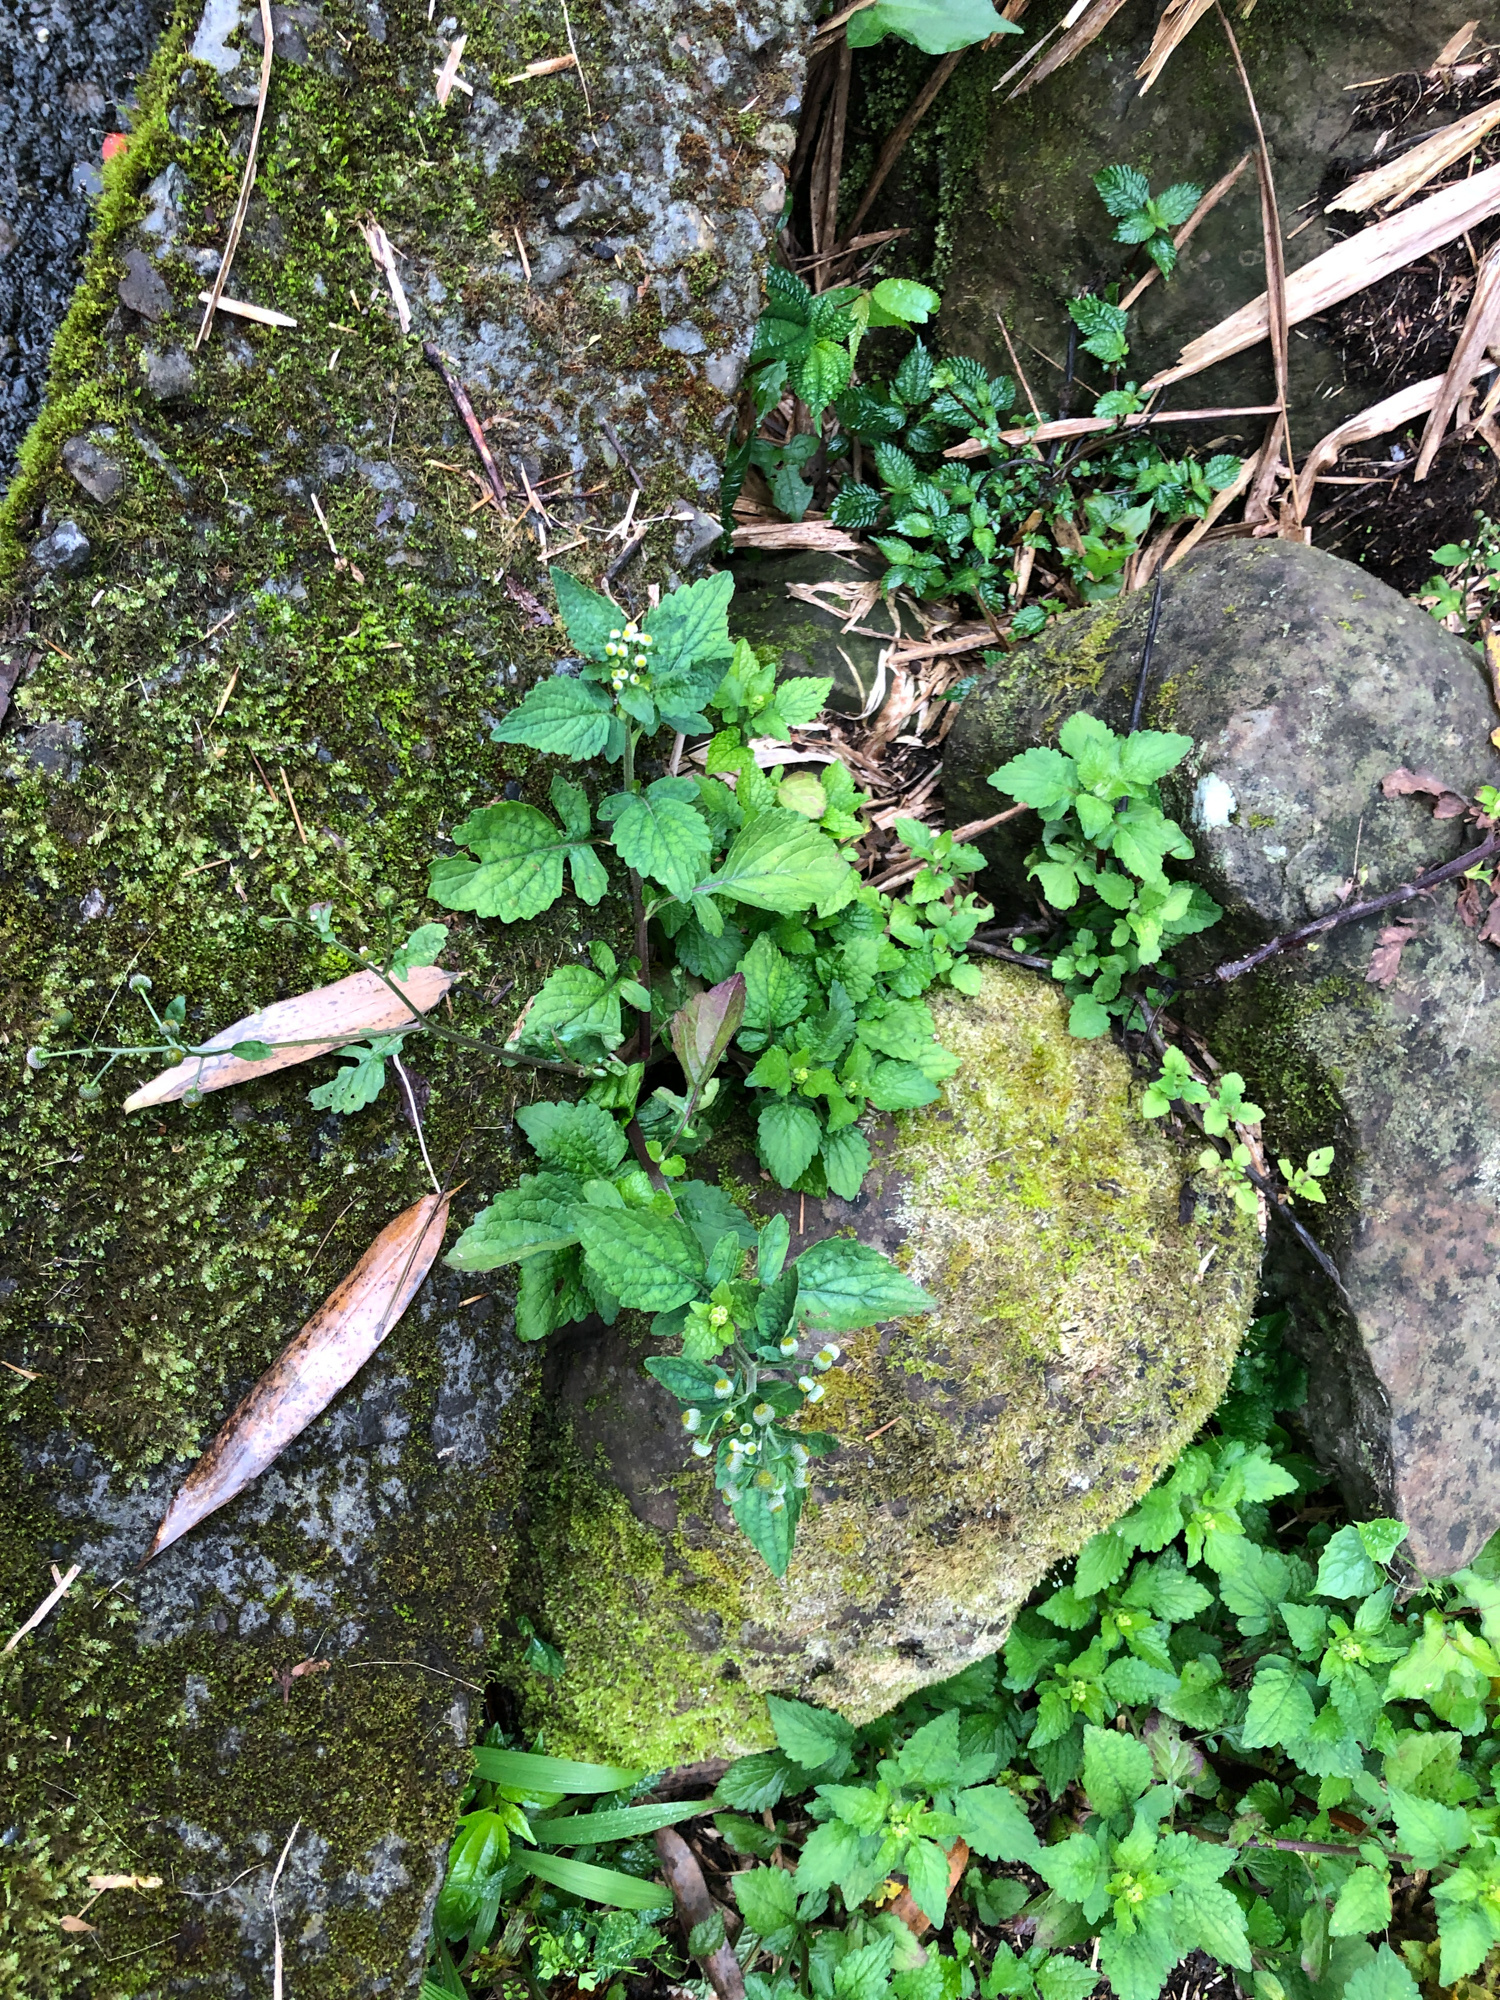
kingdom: Plantae
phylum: Tracheophyta
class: Magnoliopsida
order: Asterales
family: Asteraceae
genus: Dichrocephala
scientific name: Dichrocephala integrifolia
